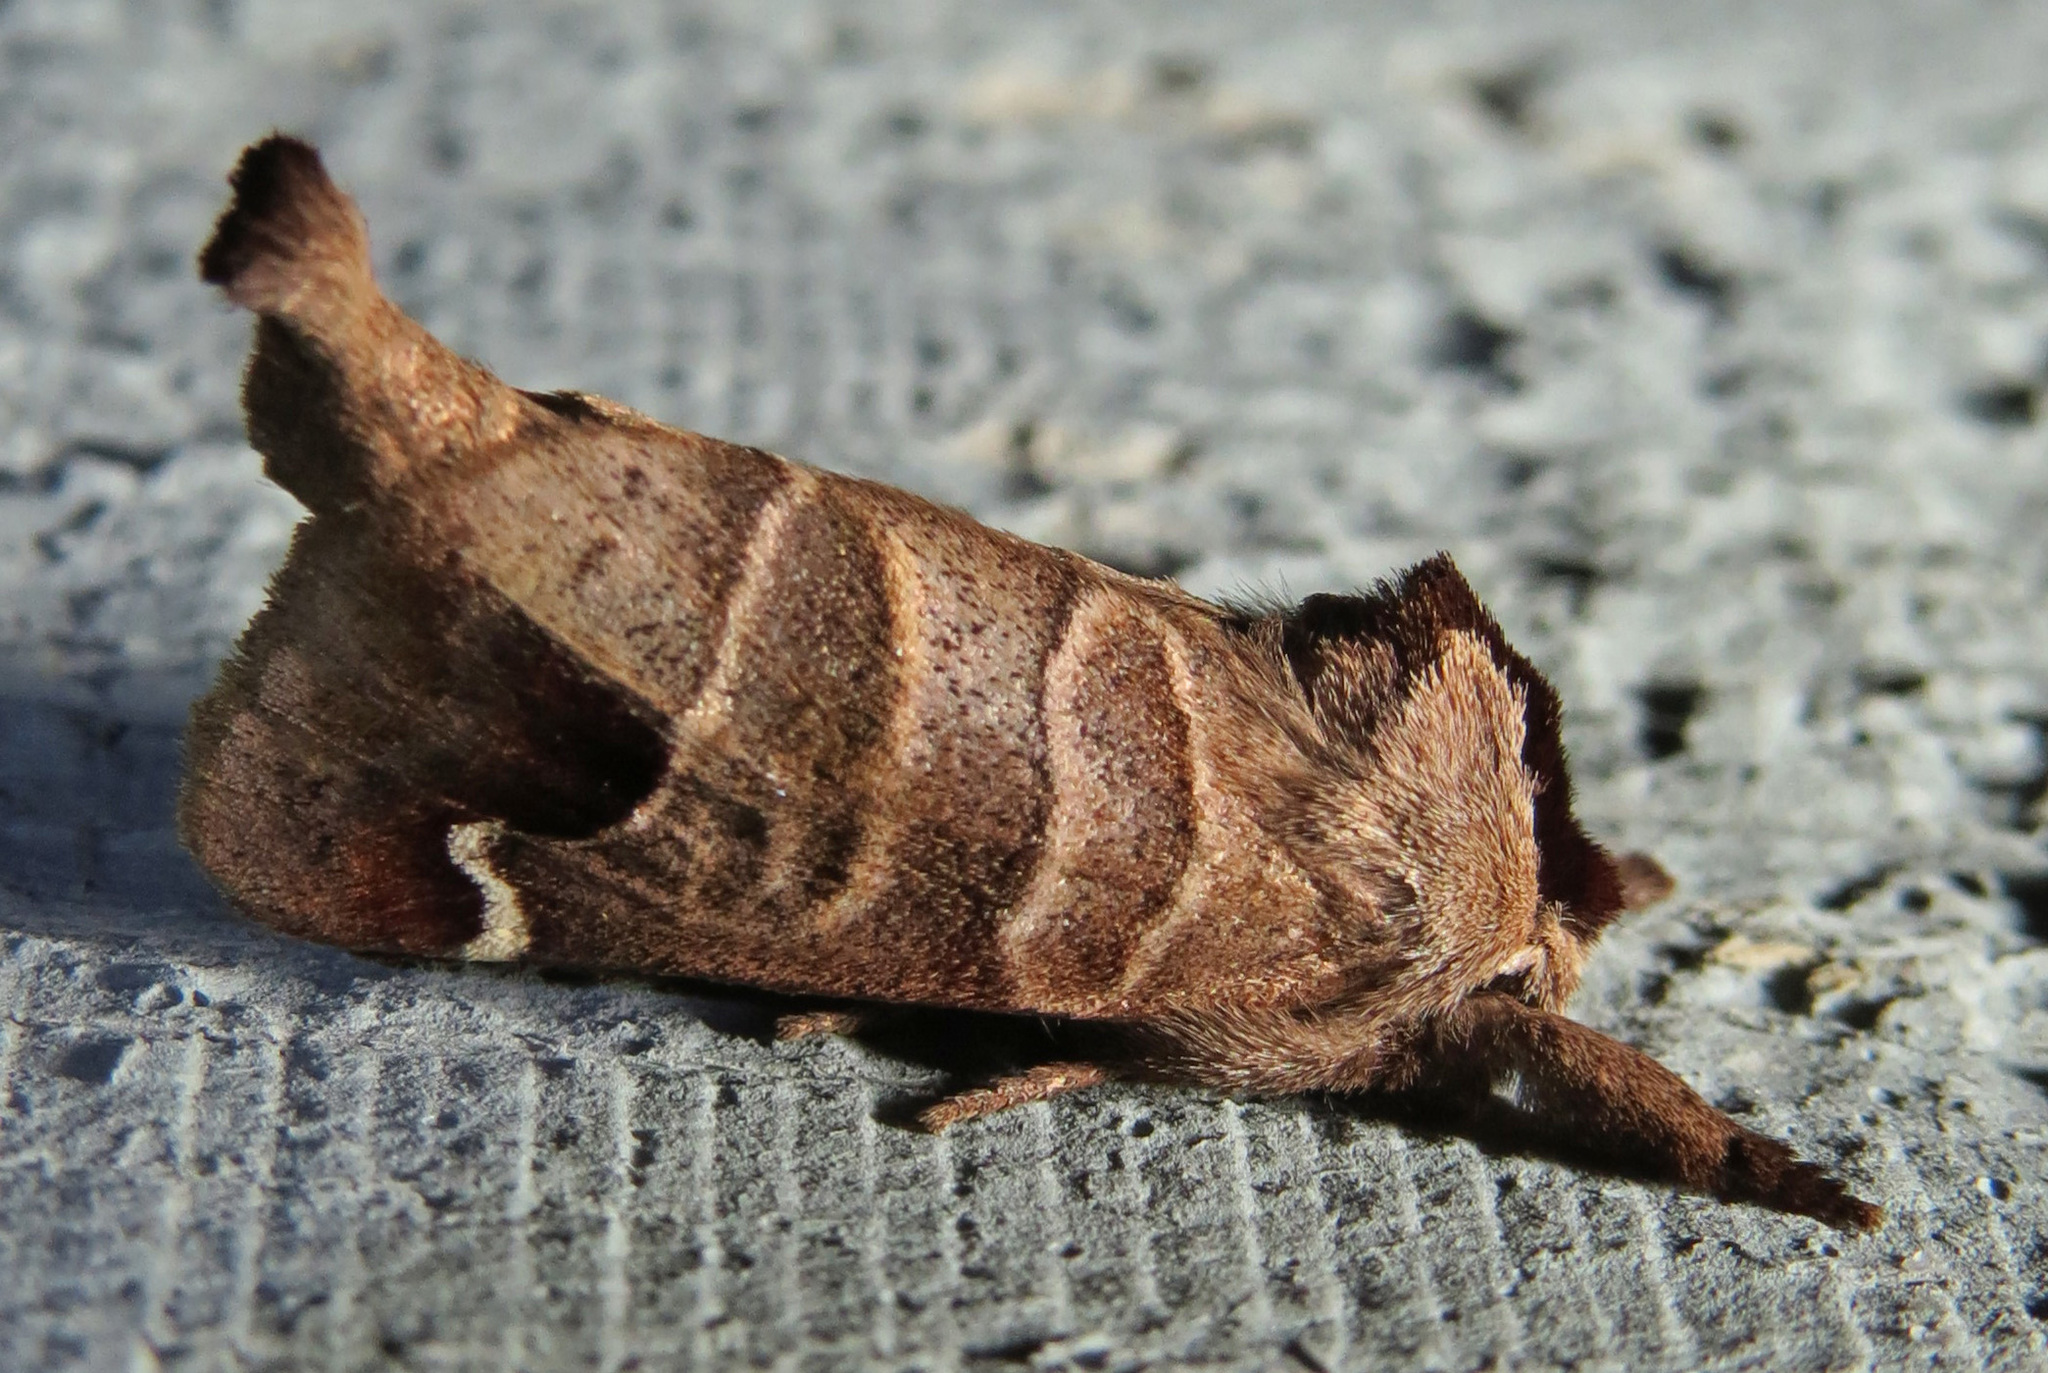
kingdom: Animalia
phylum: Arthropoda
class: Insecta
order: Lepidoptera
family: Notodontidae
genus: Clostera
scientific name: Clostera albosigma
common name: Sigmoid prominent
